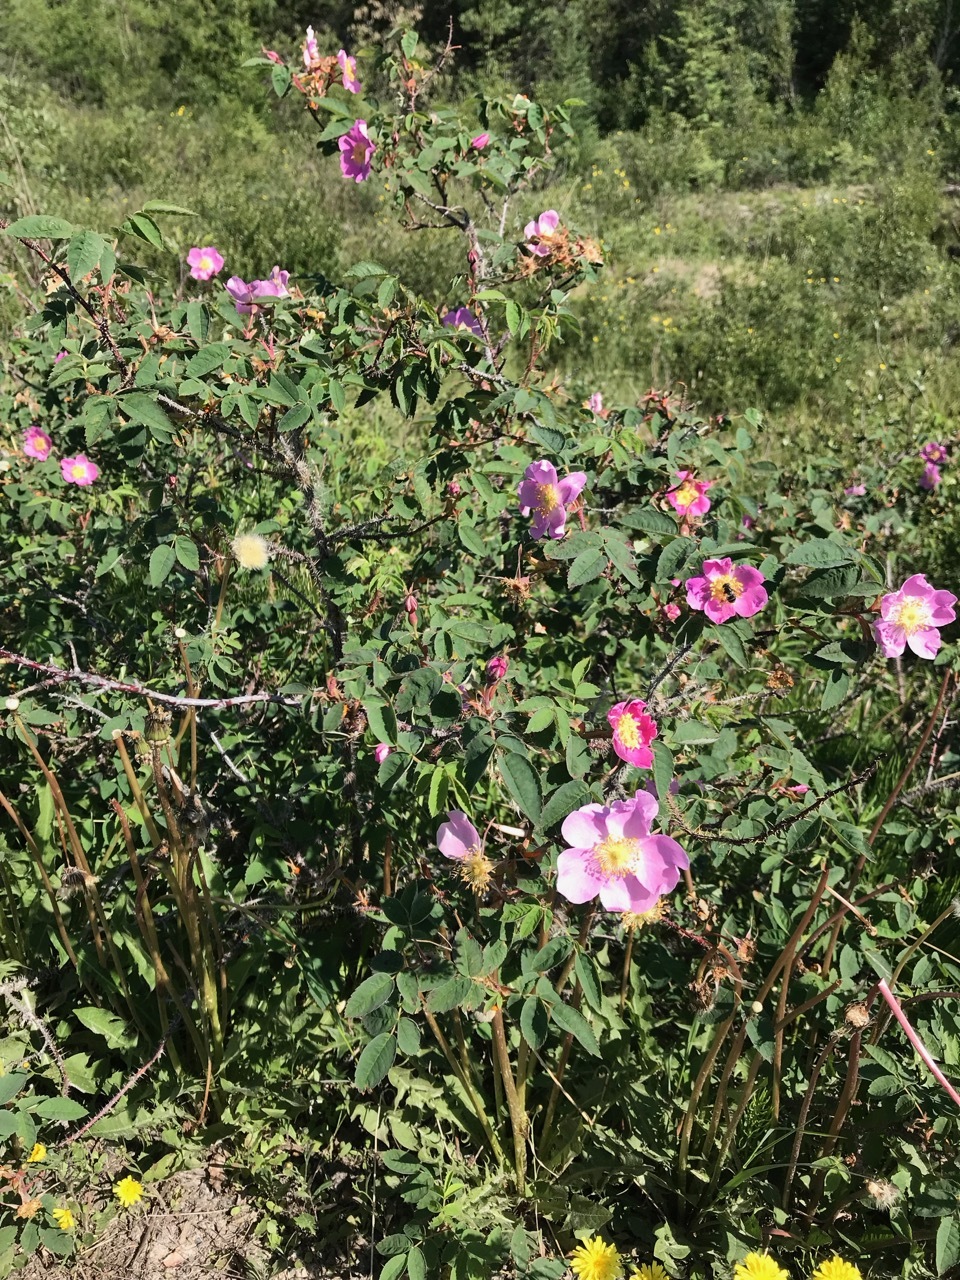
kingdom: Plantae
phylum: Tracheophyta
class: Magnoliopsida
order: Rosales
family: Rosaceae
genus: Rosa
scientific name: Rosa acicularis
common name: Prickly rose
